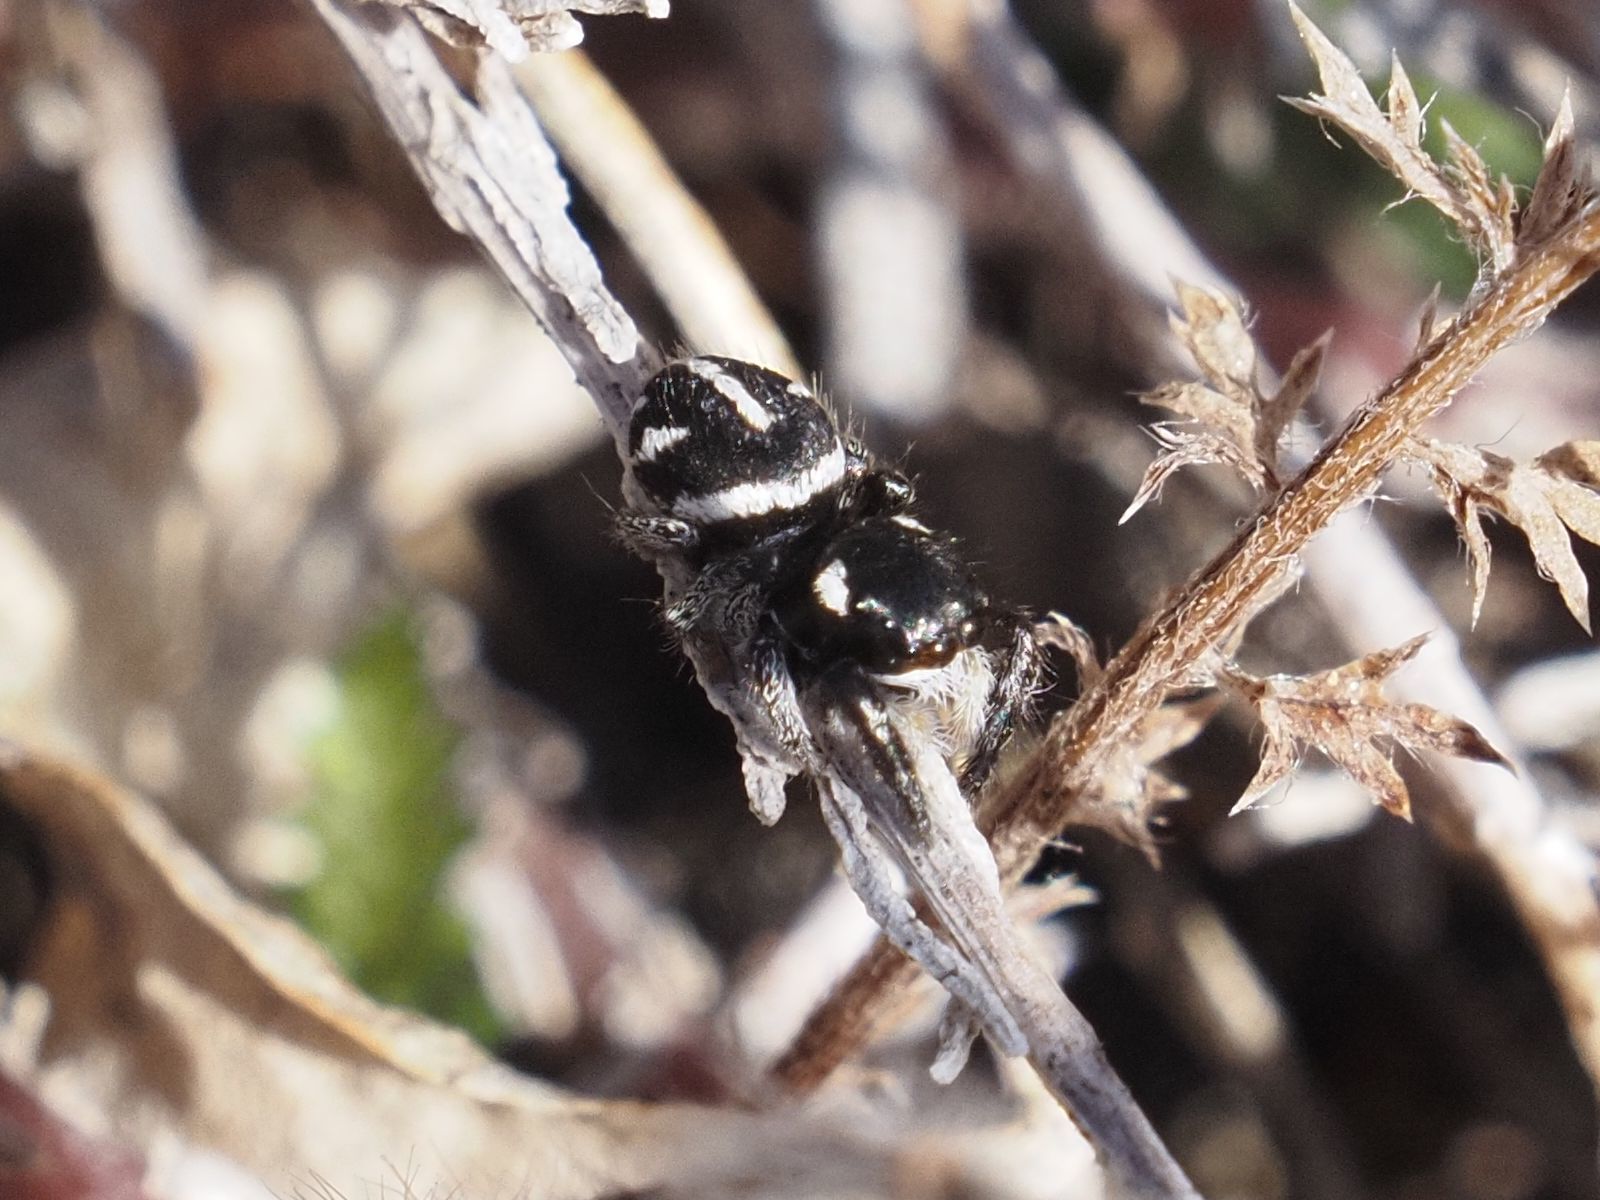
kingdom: Animalia
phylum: Arthropoda
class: Arachnida
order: Araneae
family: Salticidae
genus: Pellenes
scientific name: Pellenes nigrociliatus
